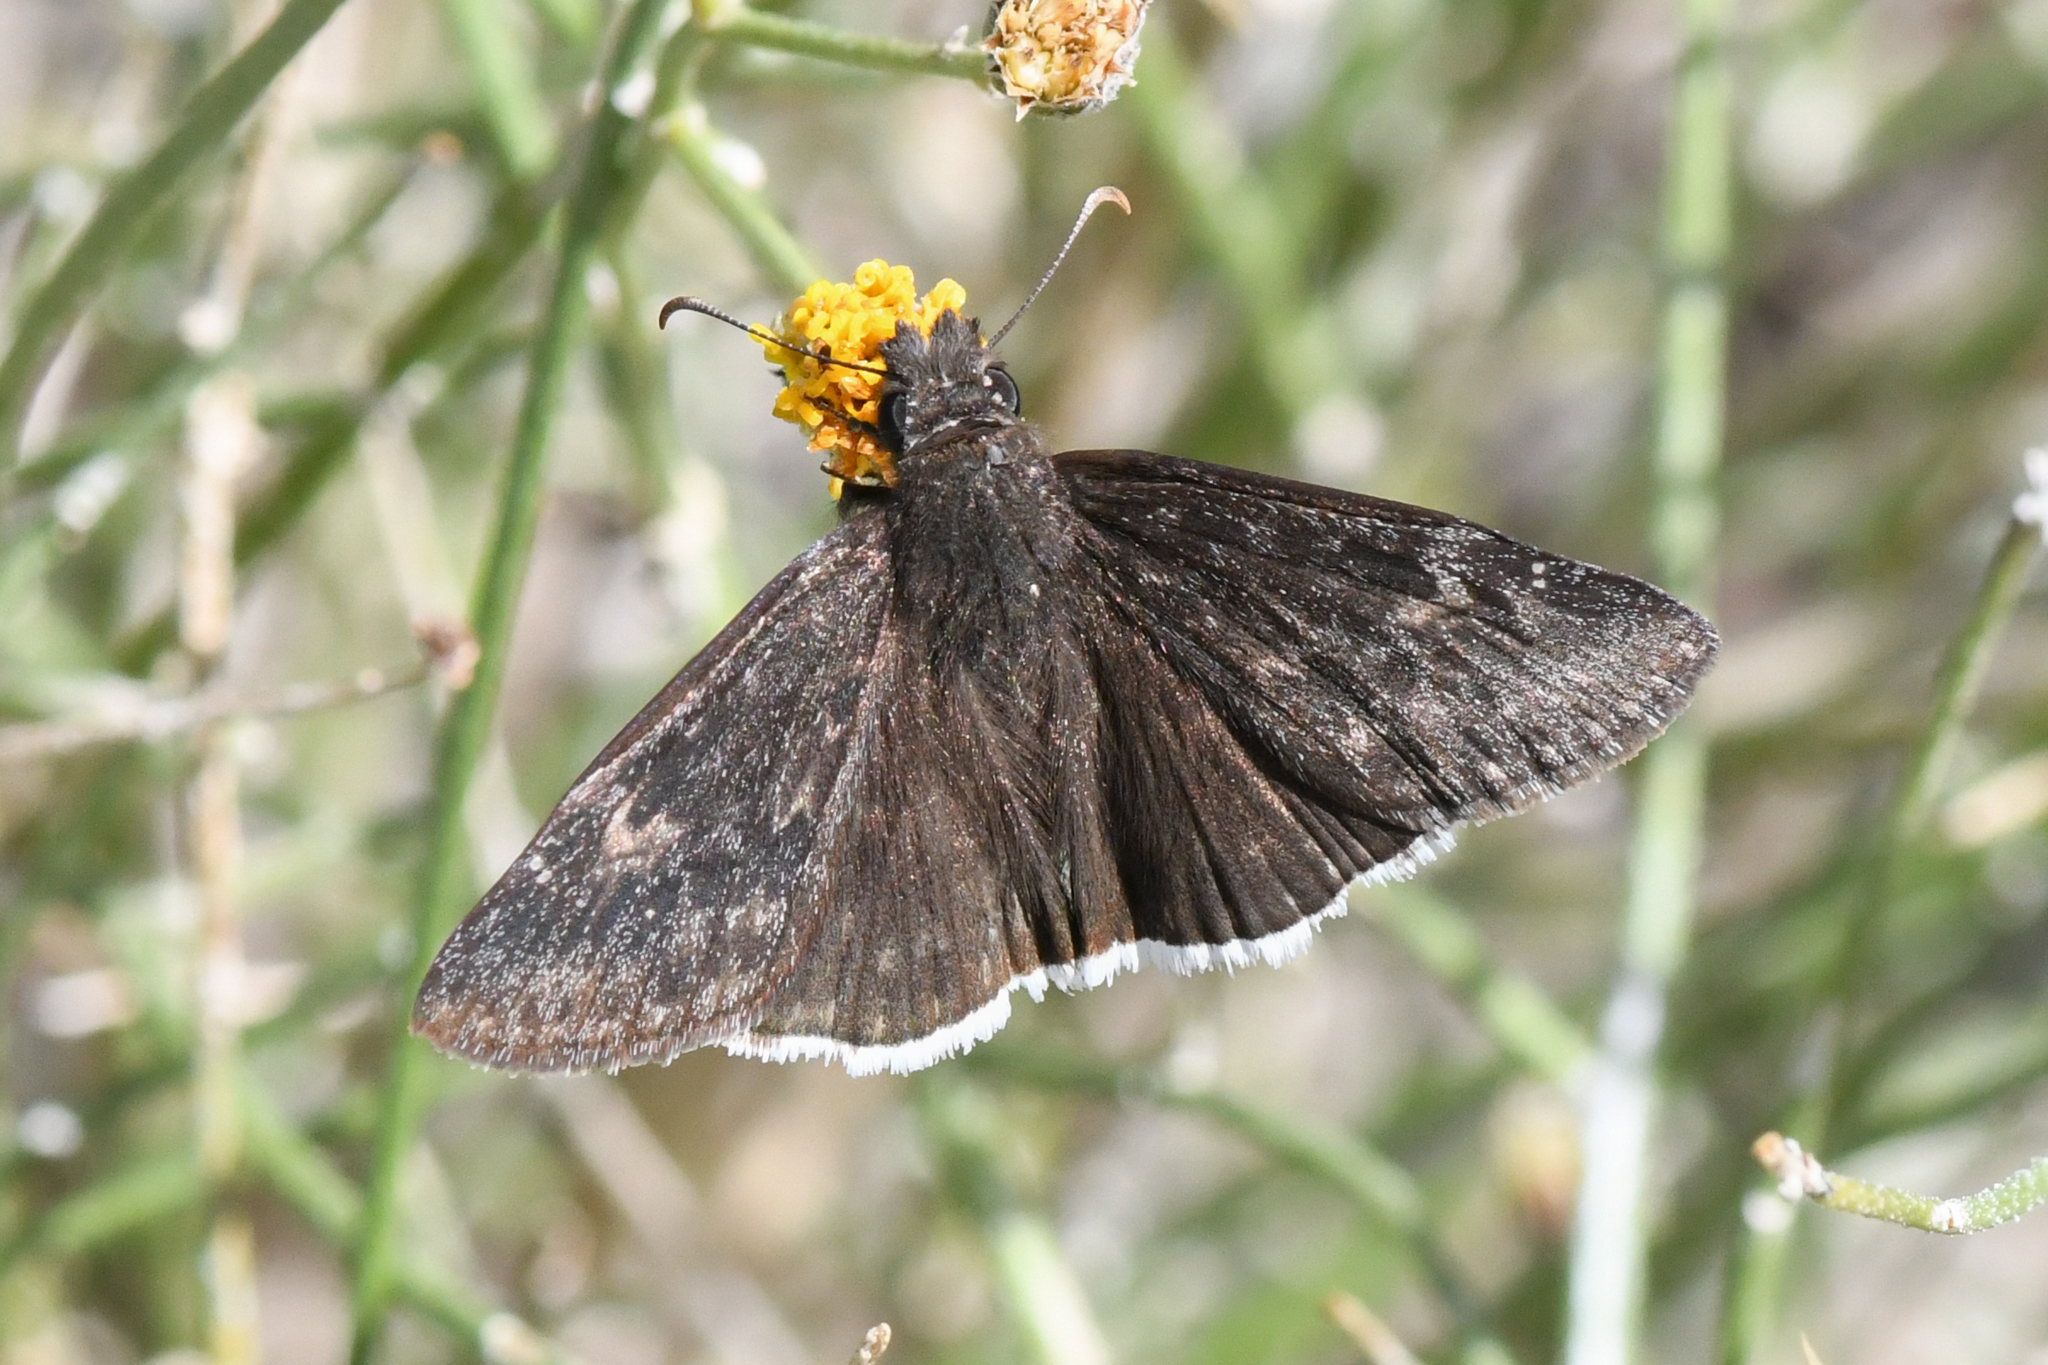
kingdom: Animalia
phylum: Arthropoda
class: Insecta
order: Lepidoptera
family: Hesperiidae
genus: Erynnis
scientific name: Erynnis funeralis
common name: Funereal duskywing
